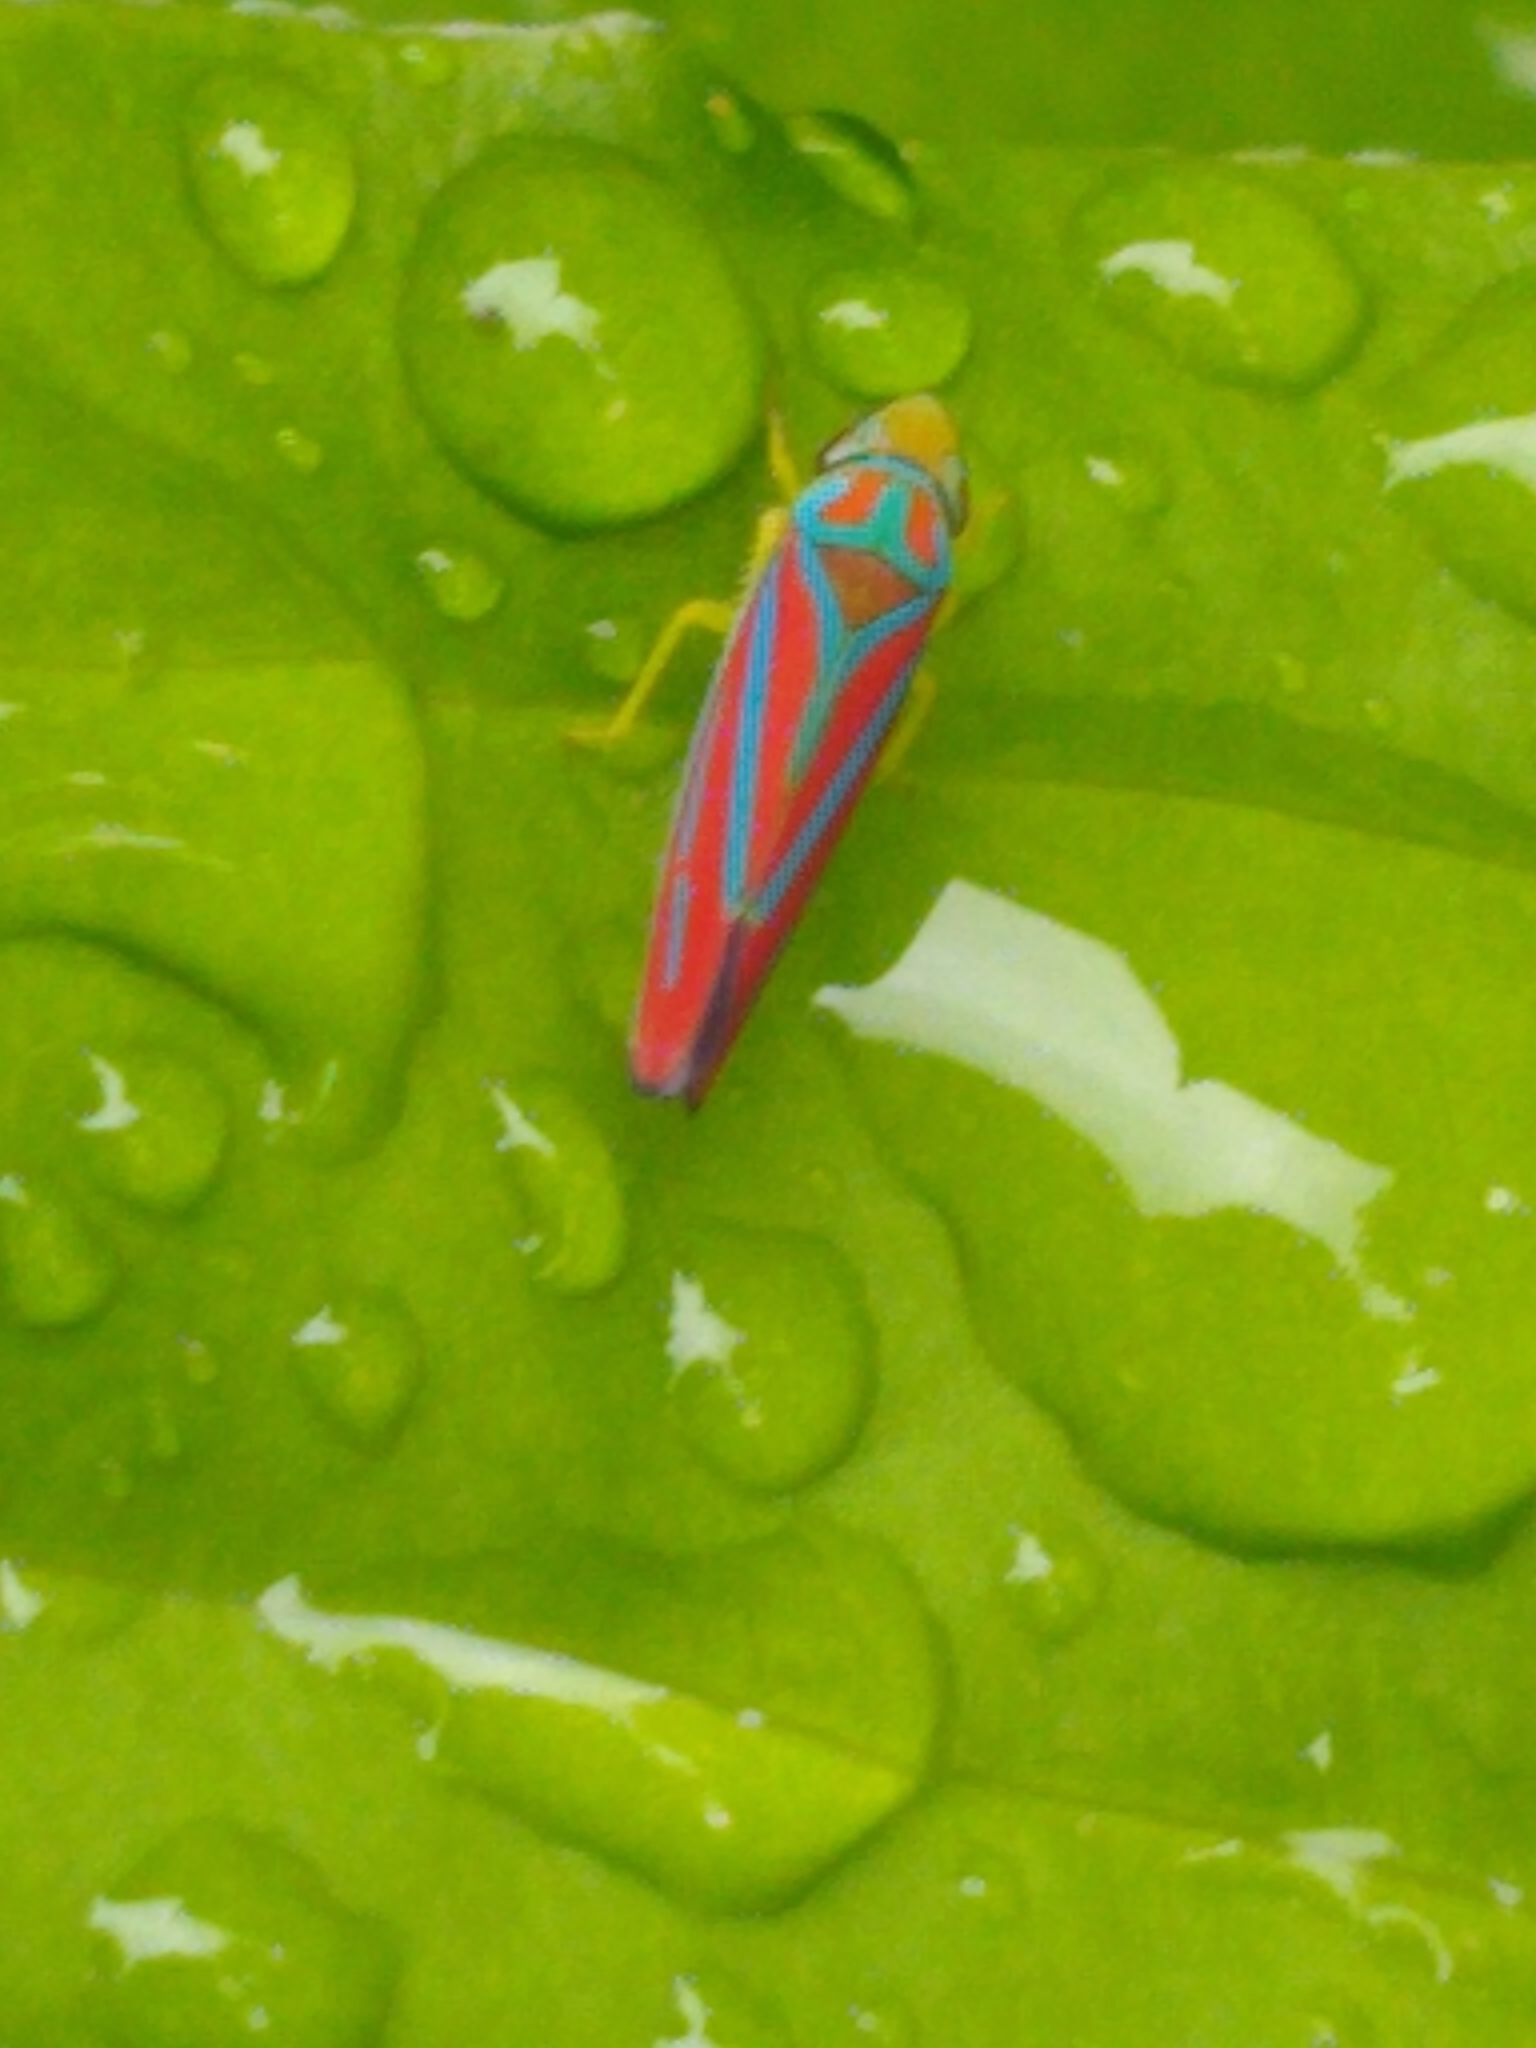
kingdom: Animalia
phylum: Arthropoda
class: Insecta
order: Hemiptera
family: Cicadellidae
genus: Graphocephala
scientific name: Graphocephala coccinea
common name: Candy-striped leafhopper
